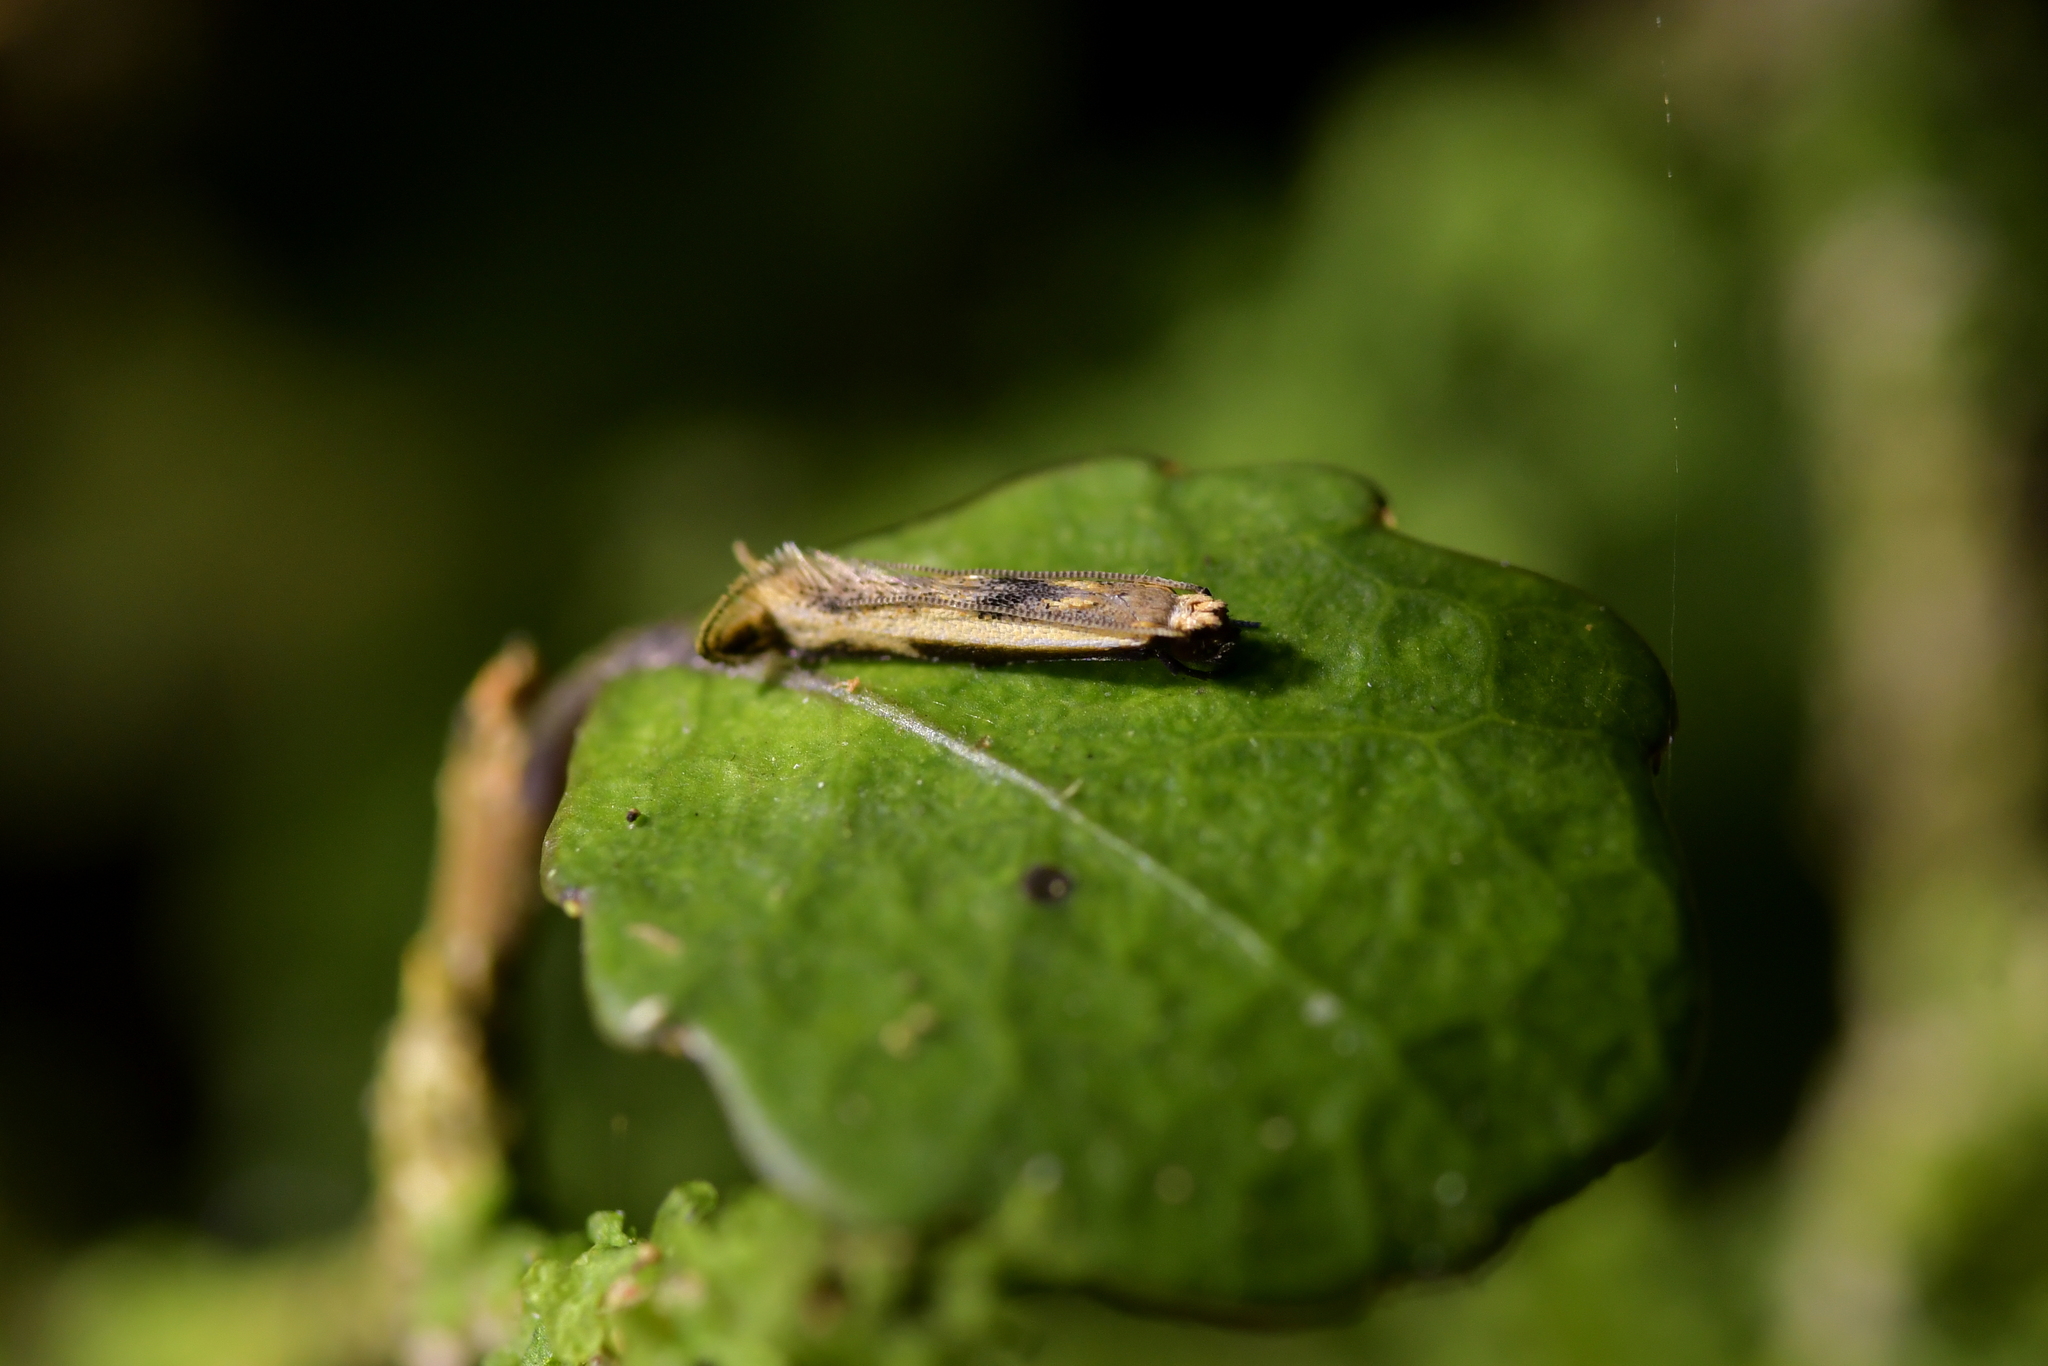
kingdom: Animalia
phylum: Arthropoda
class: Insecta
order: Lepidoptera
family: Tineidae
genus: Erechthias
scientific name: Erechthias charadrota
